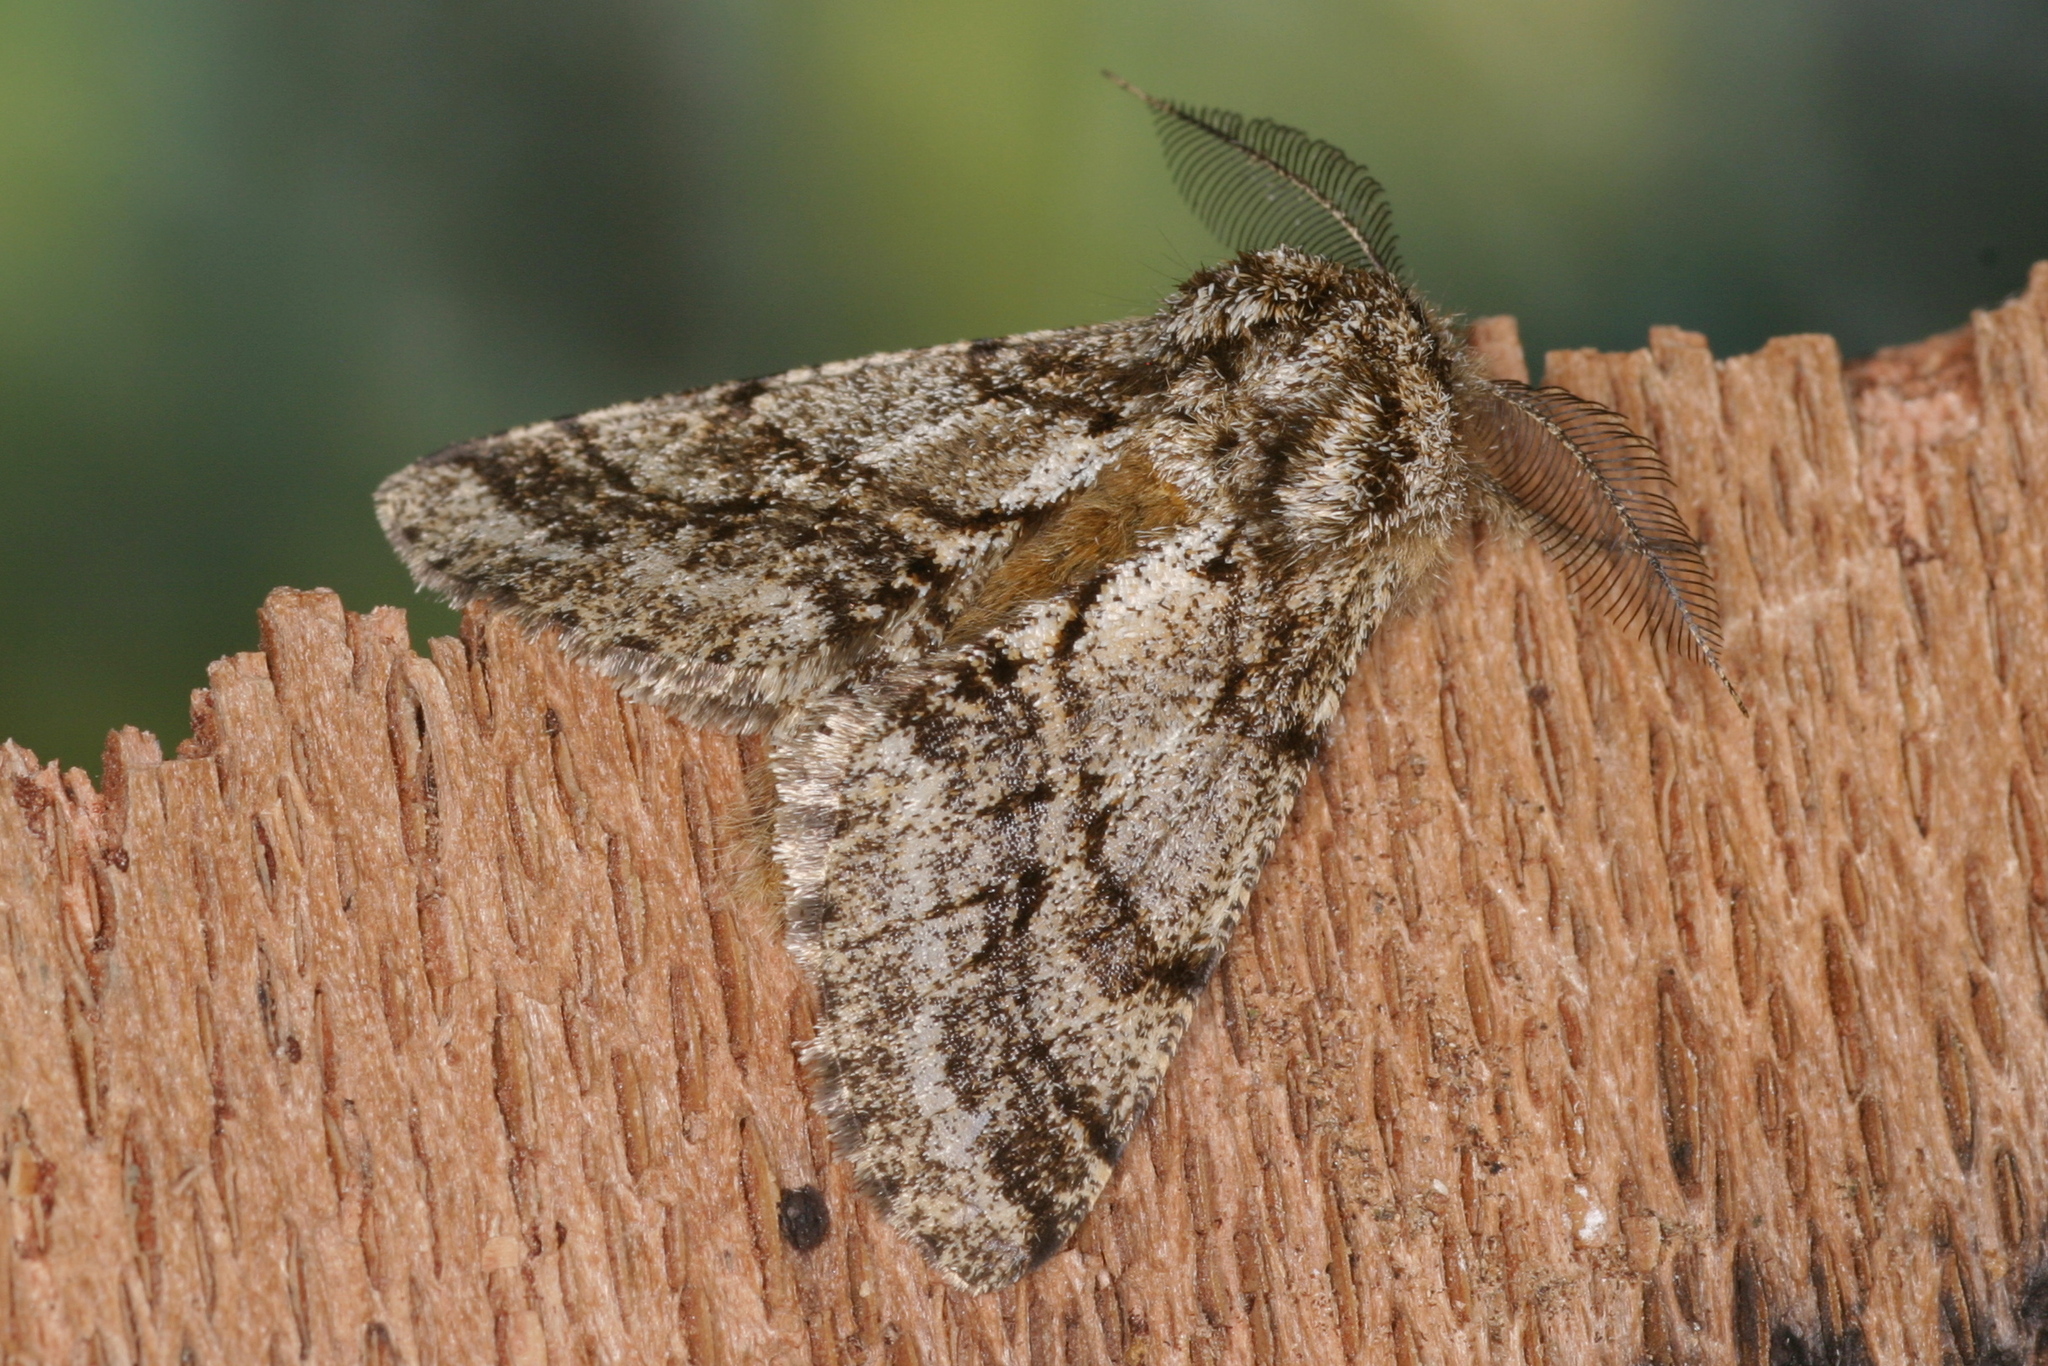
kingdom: Animalia
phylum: Arthropoda
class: Insecta
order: Lepidoptera
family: Geometridae
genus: Lycia
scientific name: Lycia hirtaria
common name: Brindled beauty
